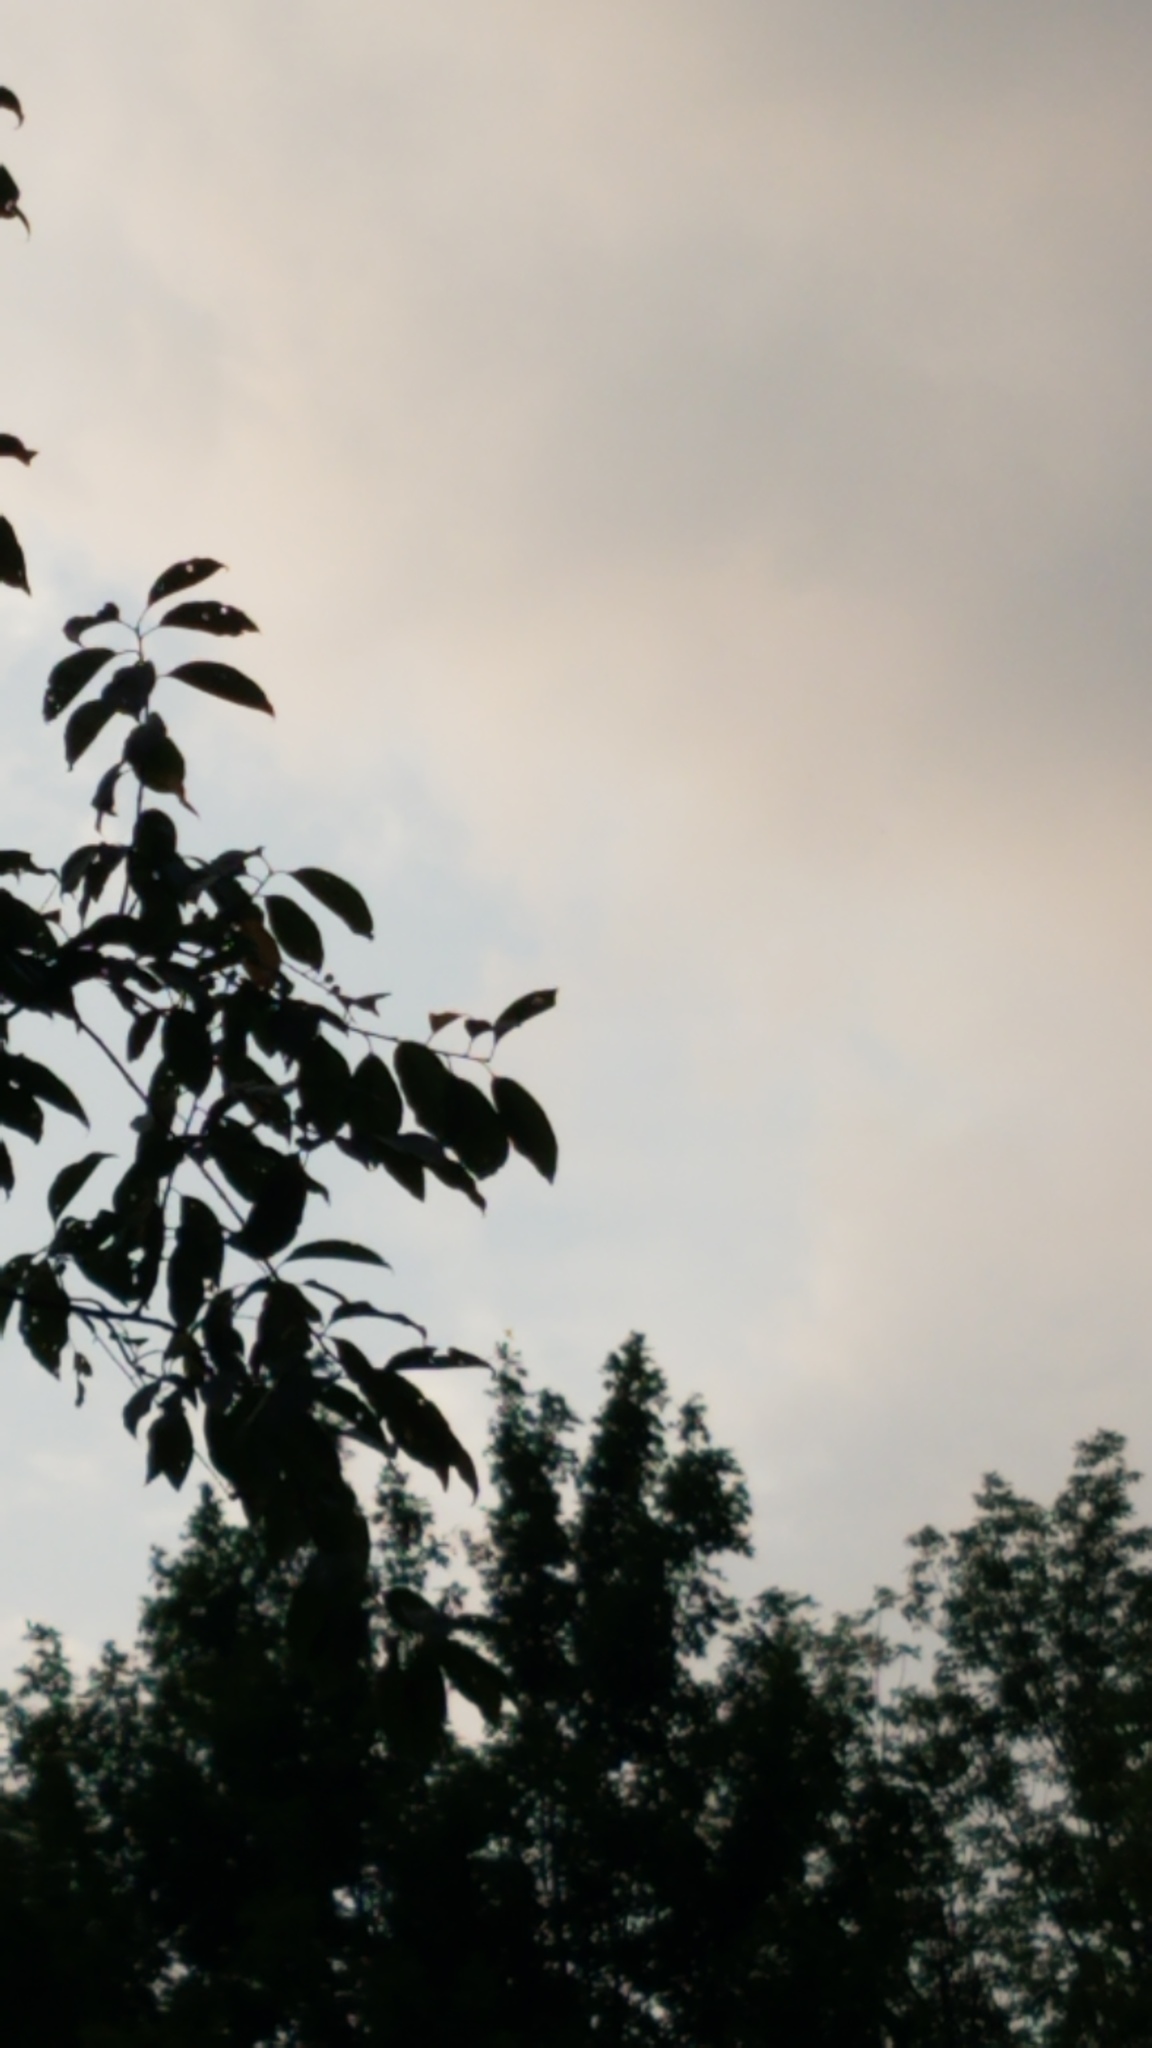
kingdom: Animalia
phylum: Chordata
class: Aves
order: Accipitriformes
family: Cathartidae
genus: Cathartes
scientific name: Cathartes aura
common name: Turkey vulture
